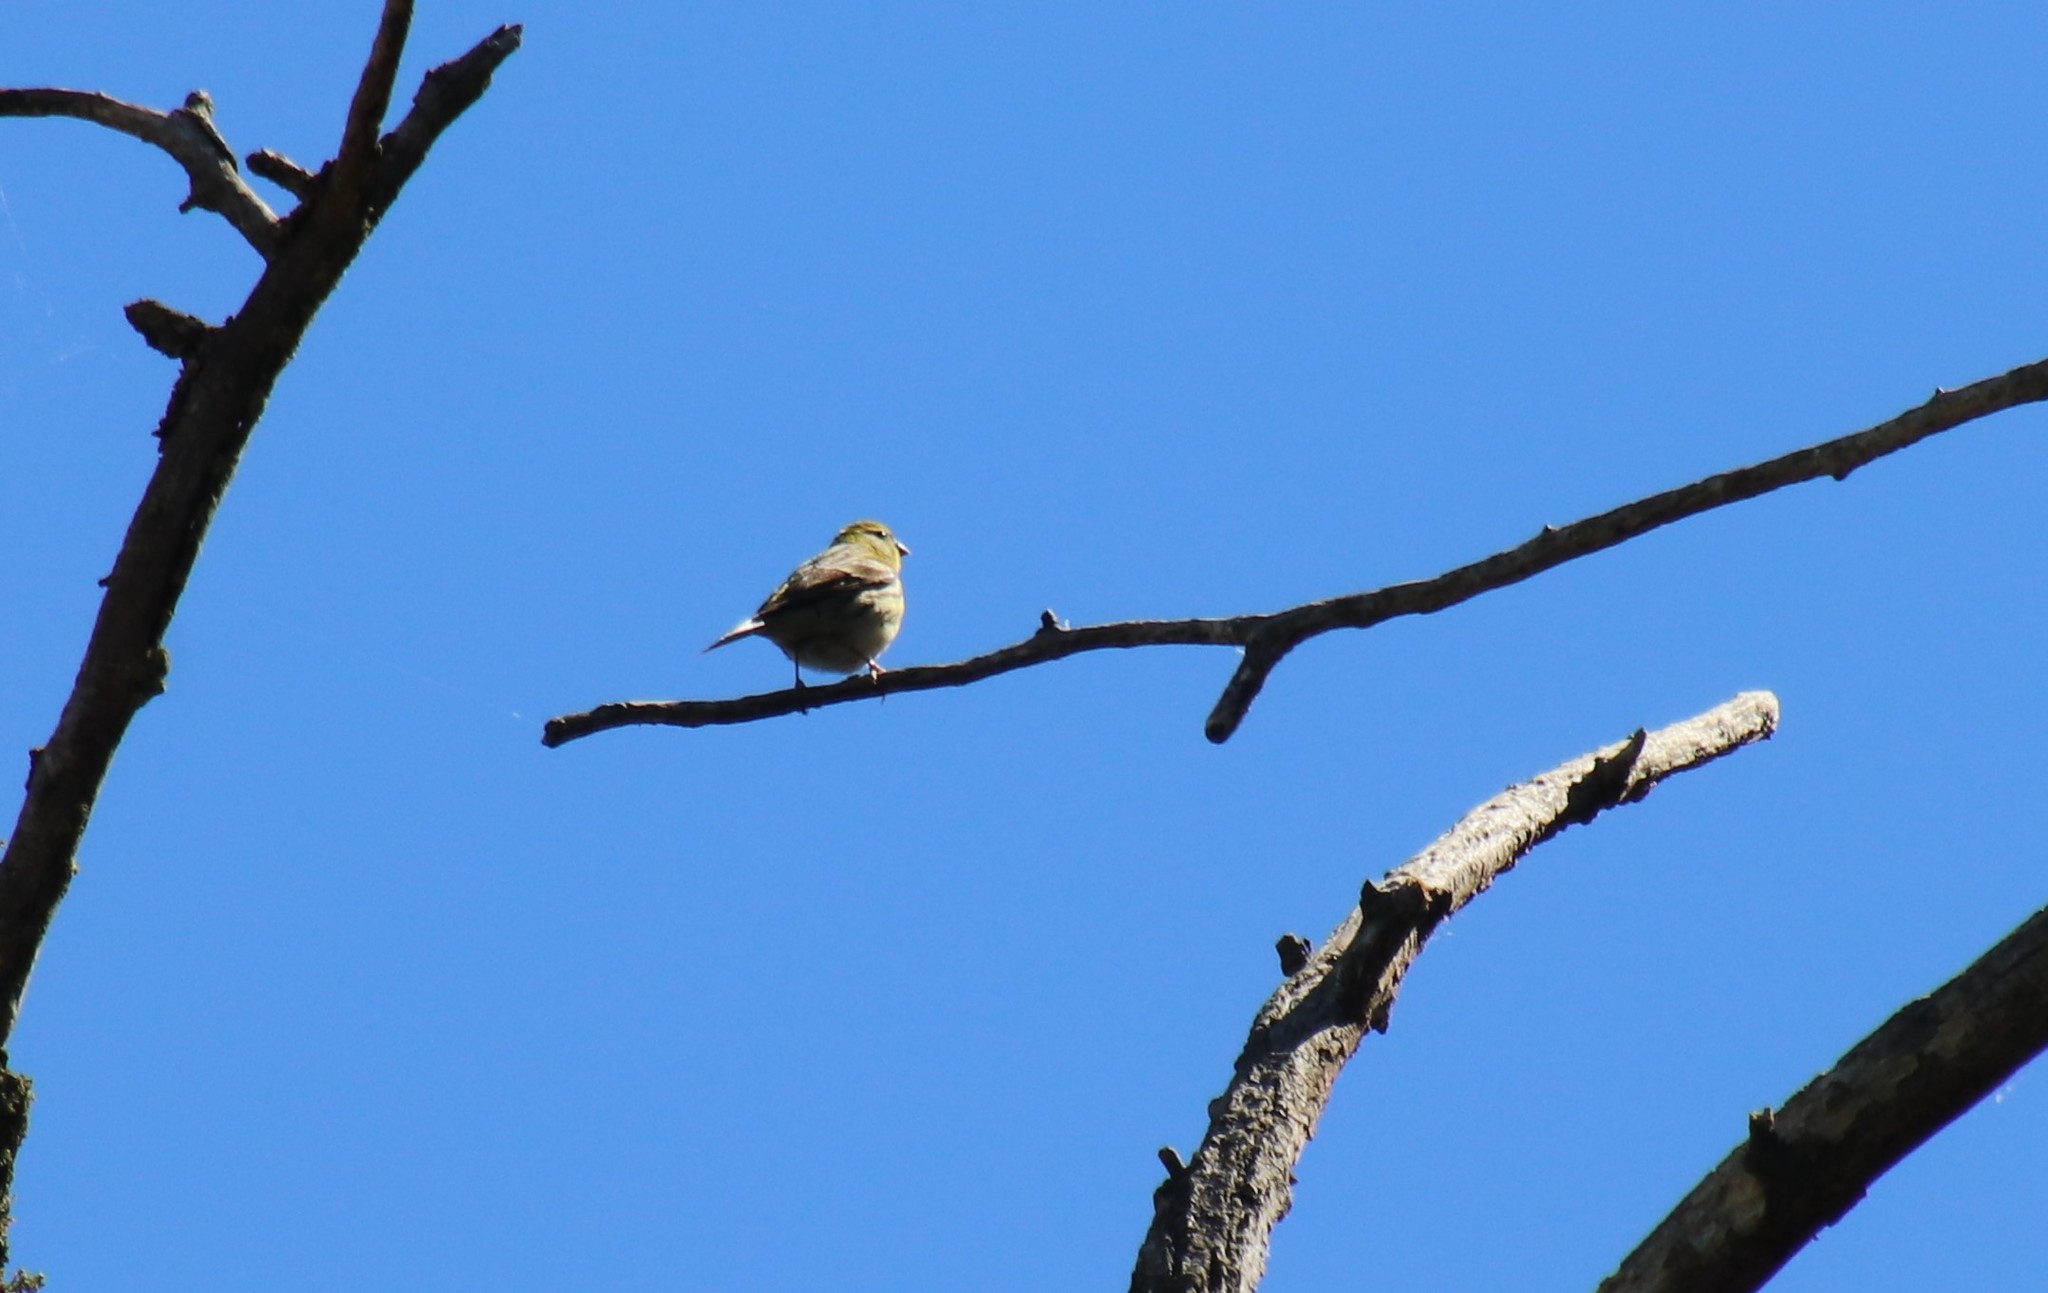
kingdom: Animalia
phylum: Chordata
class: Aves
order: Passeriformes
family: Fringillidae
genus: Serinus
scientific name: Serinus serinus
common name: European serin
